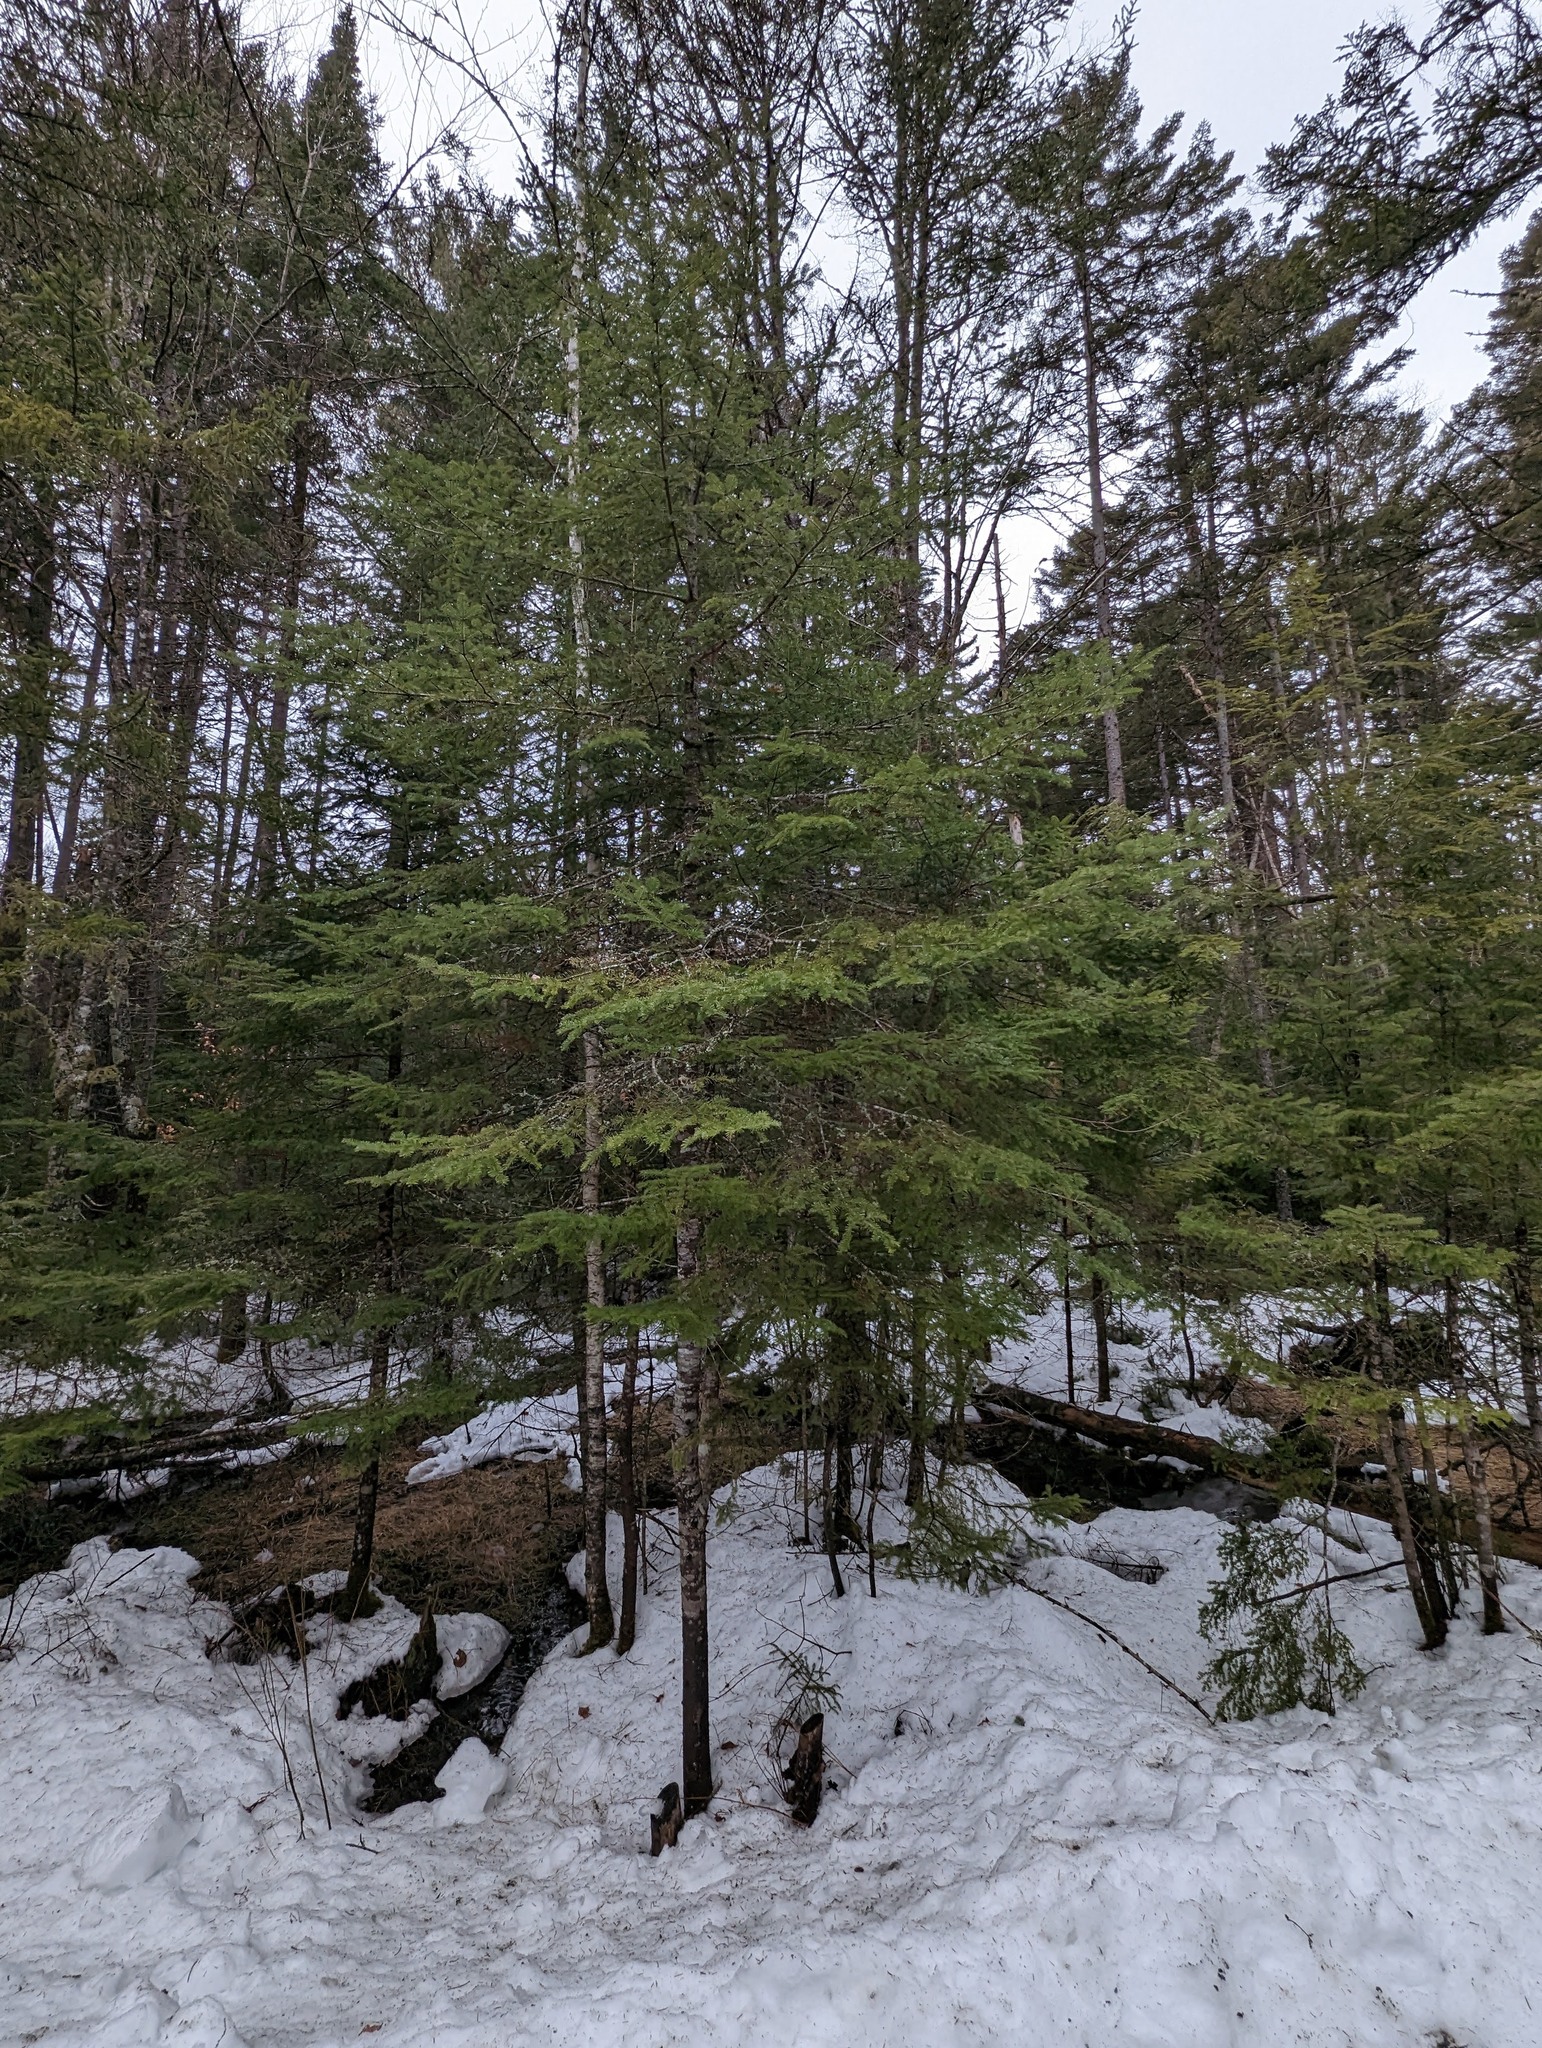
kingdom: Plantae
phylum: Tracheophyta
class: Pinopsida
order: Pinales
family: Pinaceae
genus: Abies
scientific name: Abies balsamea
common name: Balsam fir
